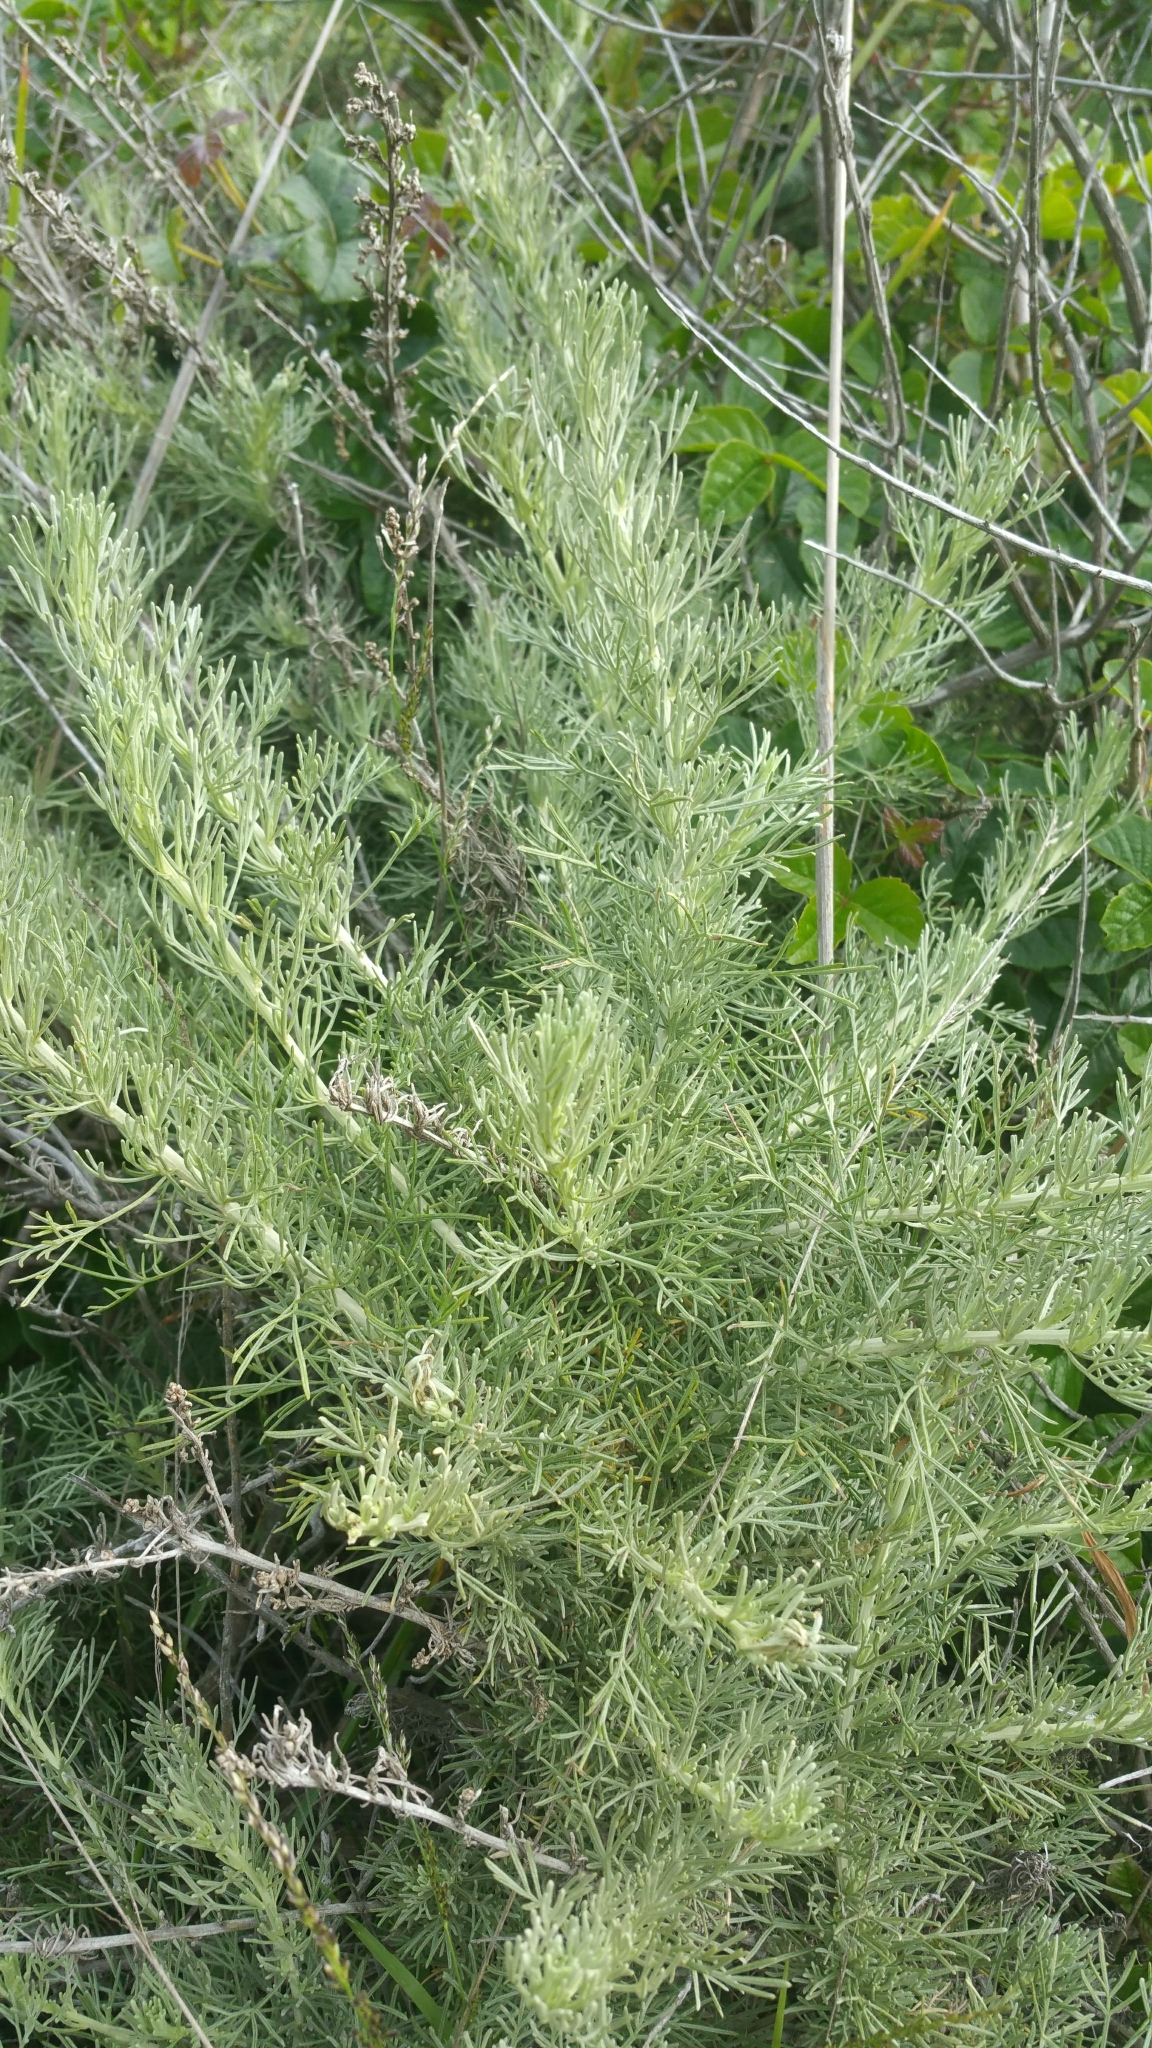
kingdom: Plantae
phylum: Tracheophyta
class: Magnoliopsida
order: Asterales
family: Asteraceae
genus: Artemisia
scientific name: Artemisia californica
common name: California sagebrush
